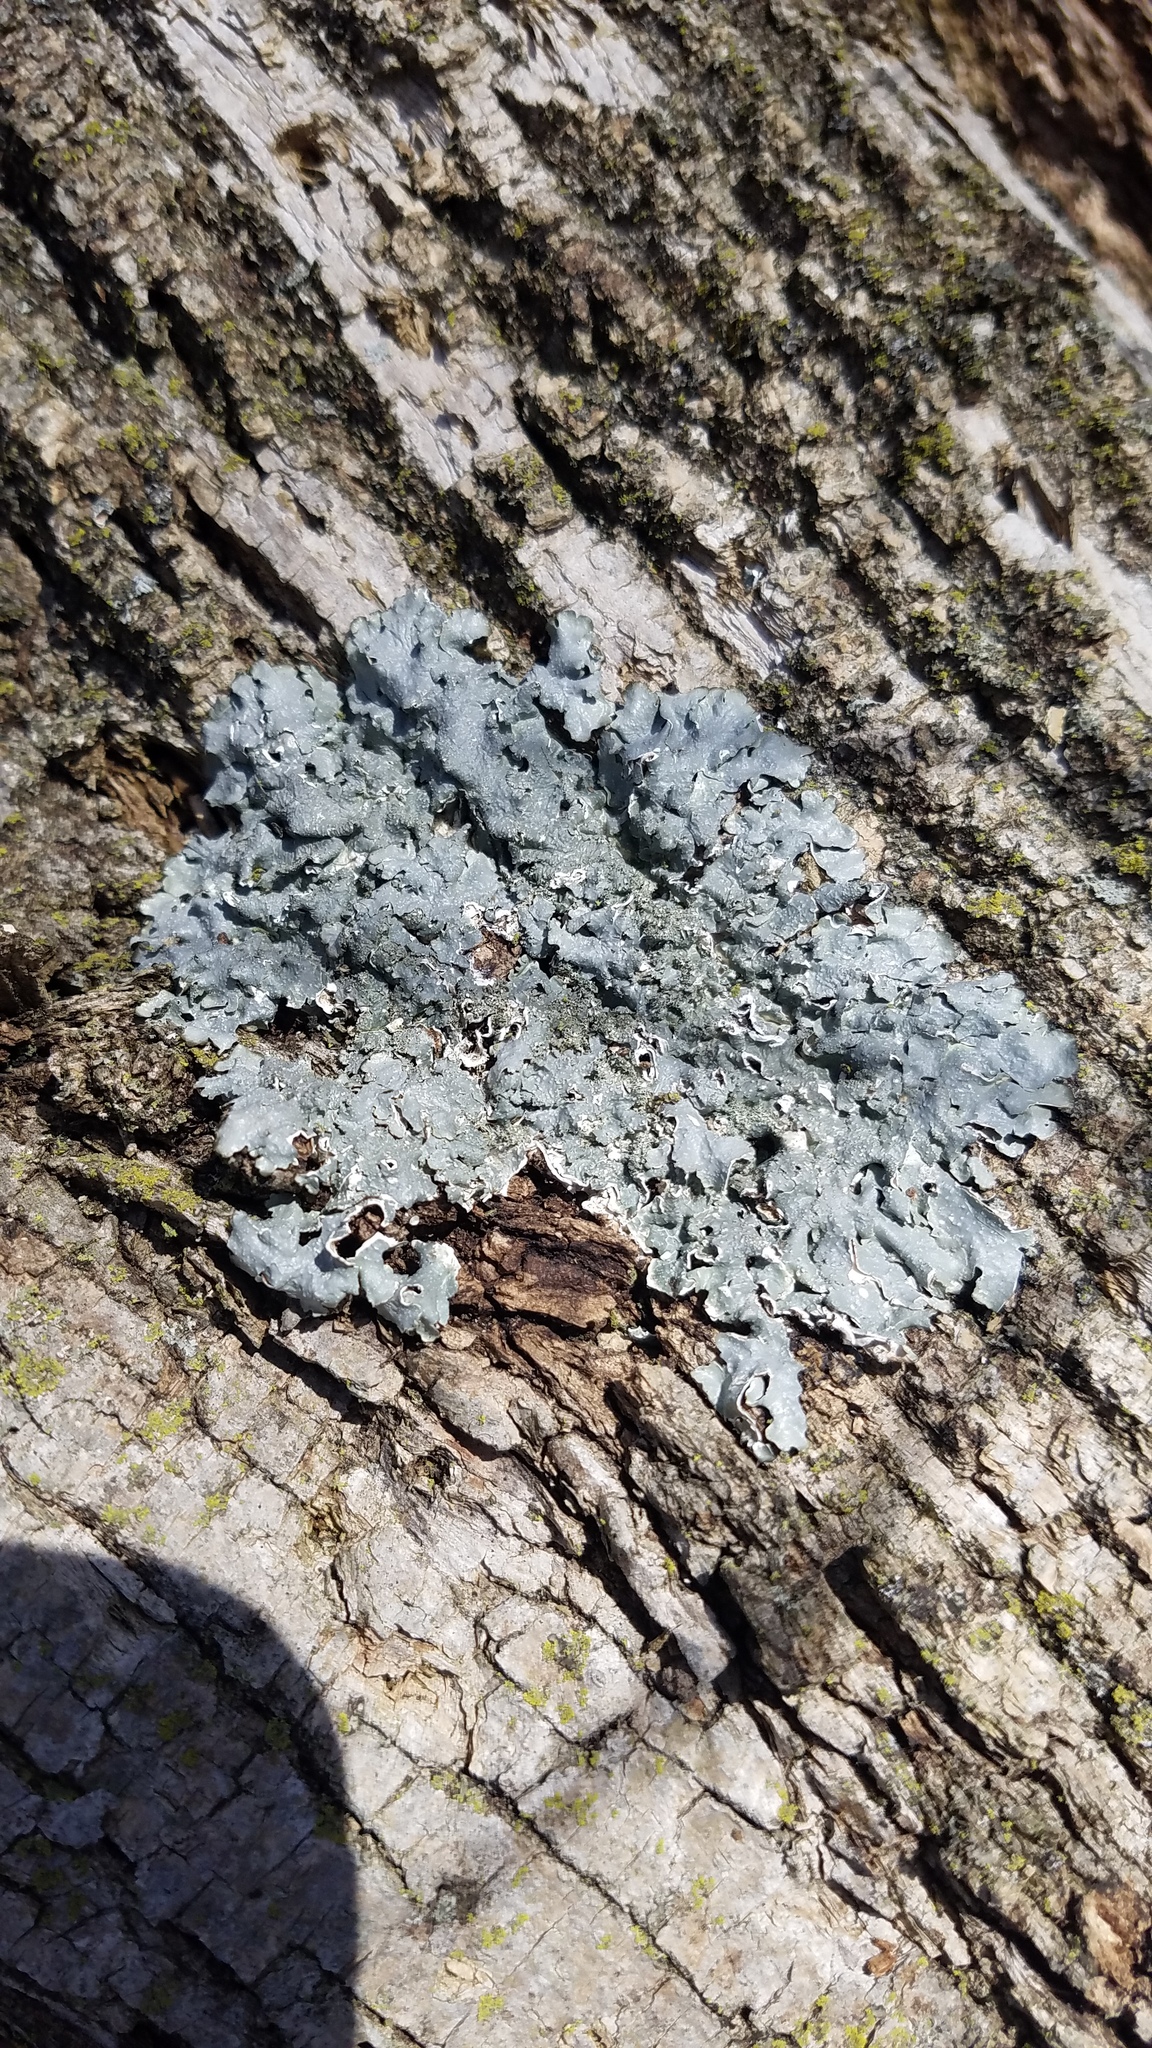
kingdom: Fungi
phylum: Ascomycota
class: Lecanoromycetes
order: Lecanorales
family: Parmeliaceae
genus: Punctelia
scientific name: Punctelia rudecta
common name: Rough speckled shield lichen
